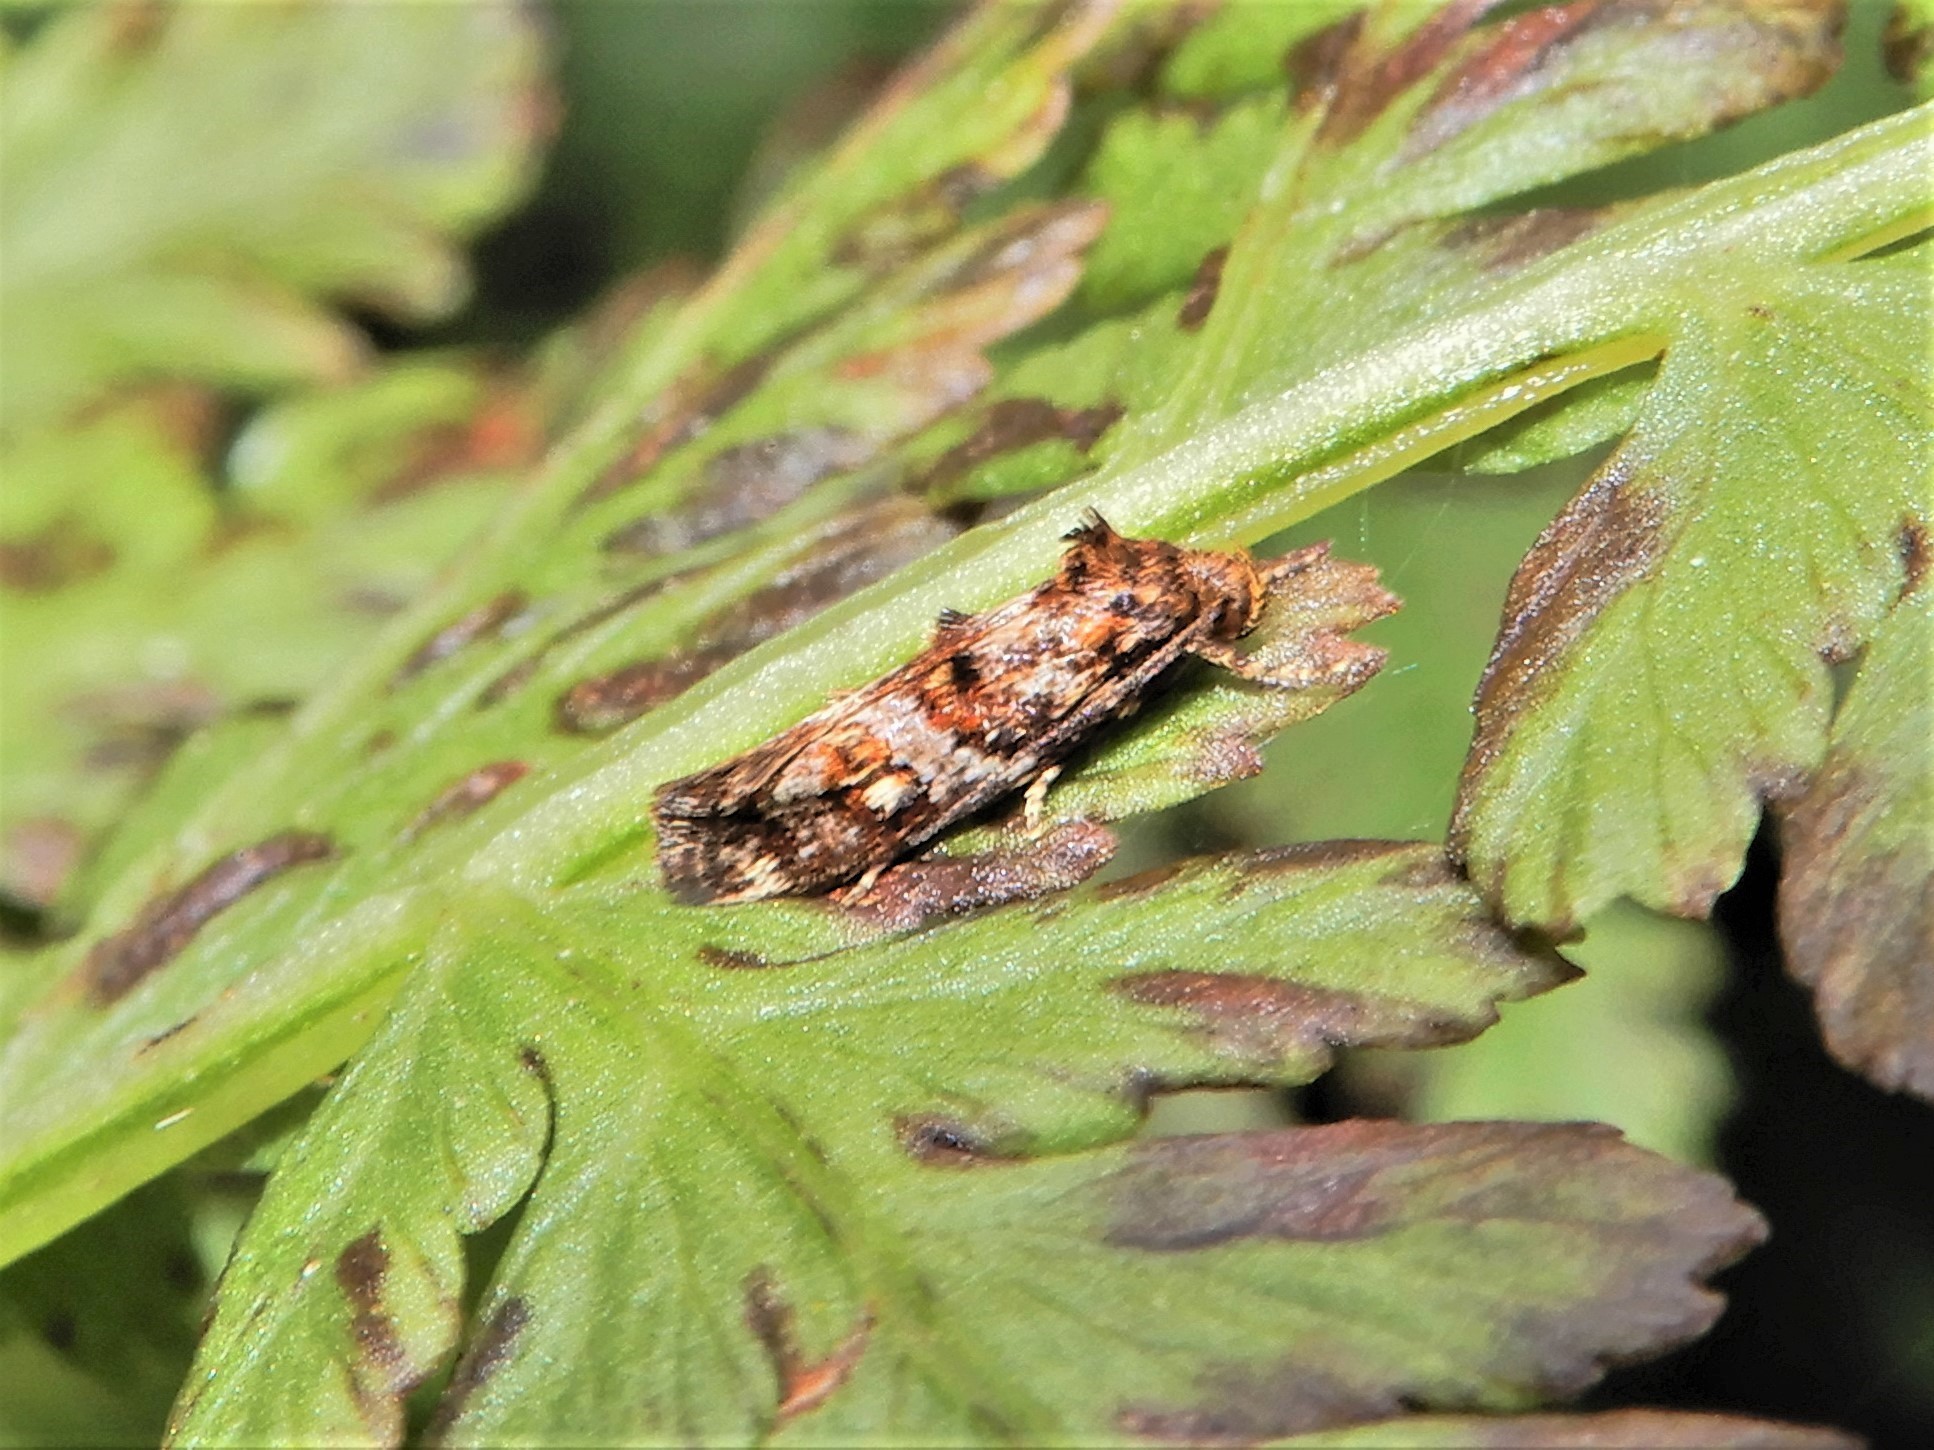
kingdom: Animalia
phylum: Arthropoda
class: Insecta
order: Lepidoptera
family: Oecophoridae
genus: Tingena
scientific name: Tingena eumenopa
